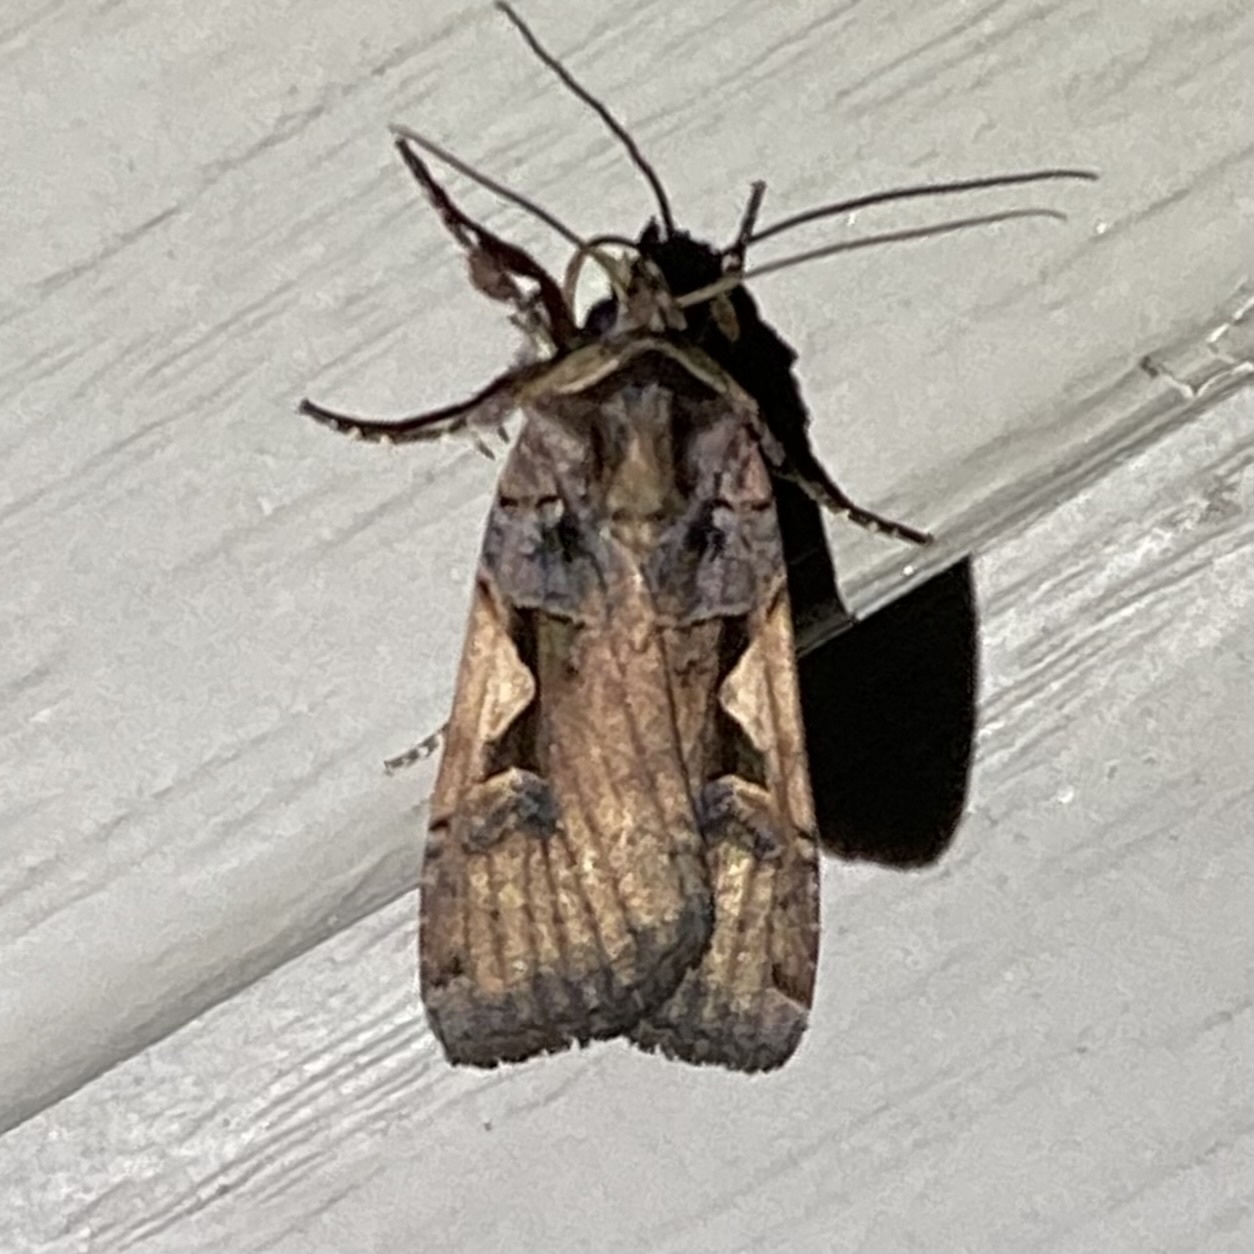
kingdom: Animalia
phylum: Arthropoda
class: Insecta
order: Lepidoptera
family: Noctuidae
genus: Xestia
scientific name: Xestia
